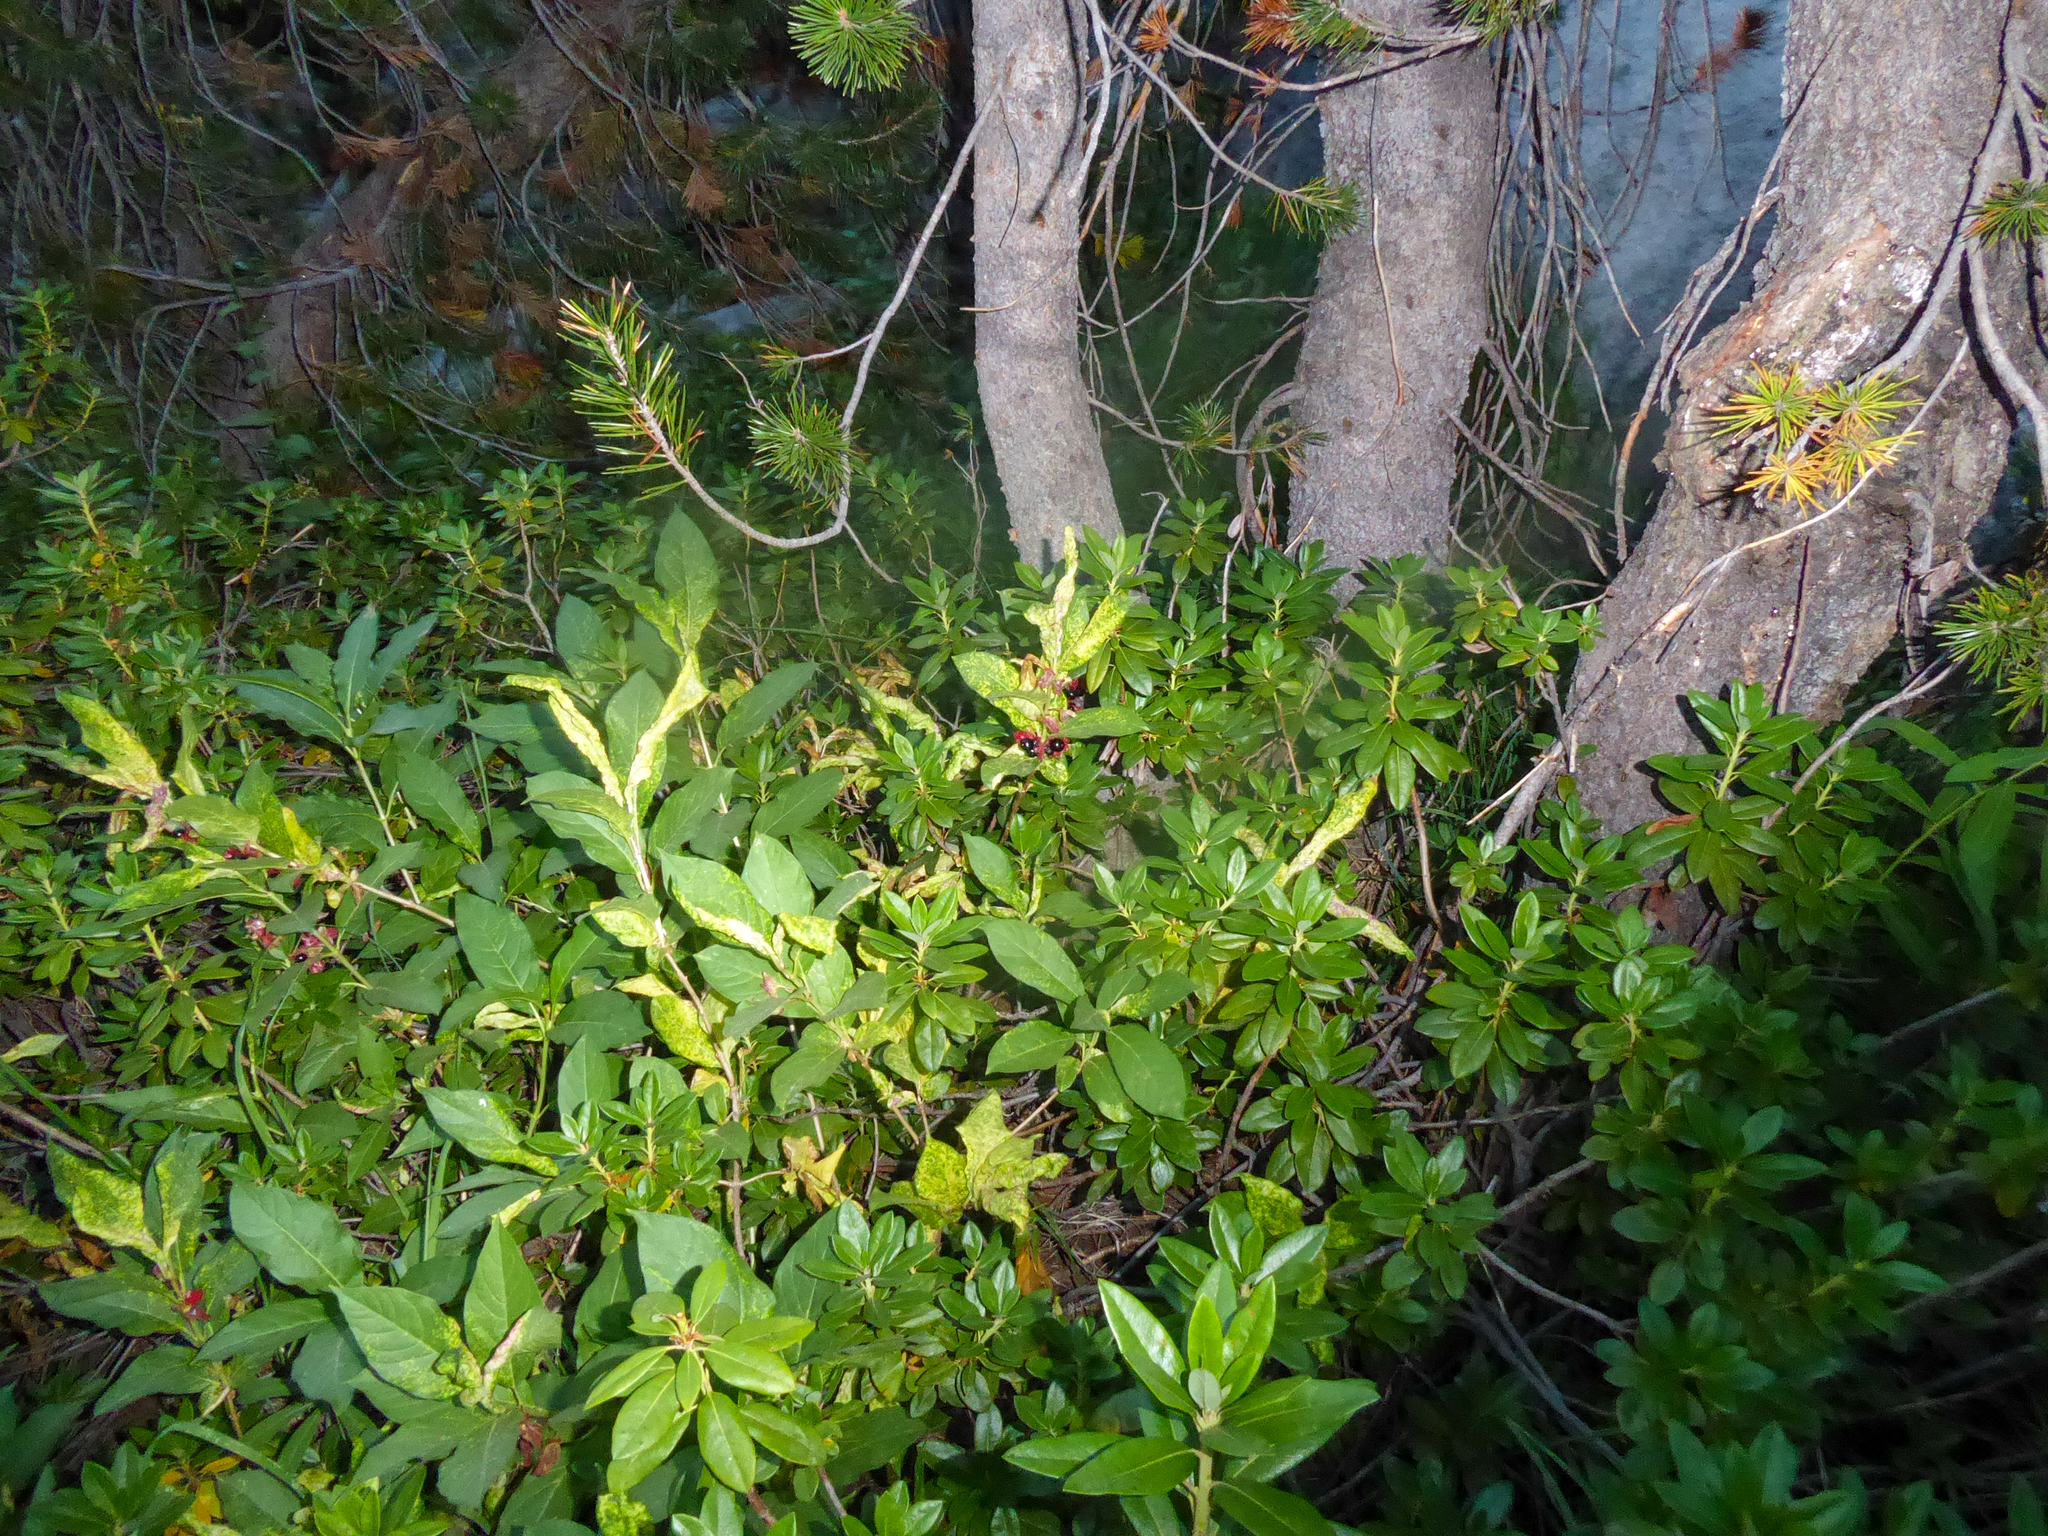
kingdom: Plantae
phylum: Tracheophyta
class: Magnoliopsida
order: Dipsacales
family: Caprifoliaceae
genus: Lonicera
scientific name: Lonicera involucrata
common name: Californian honeysuckle
